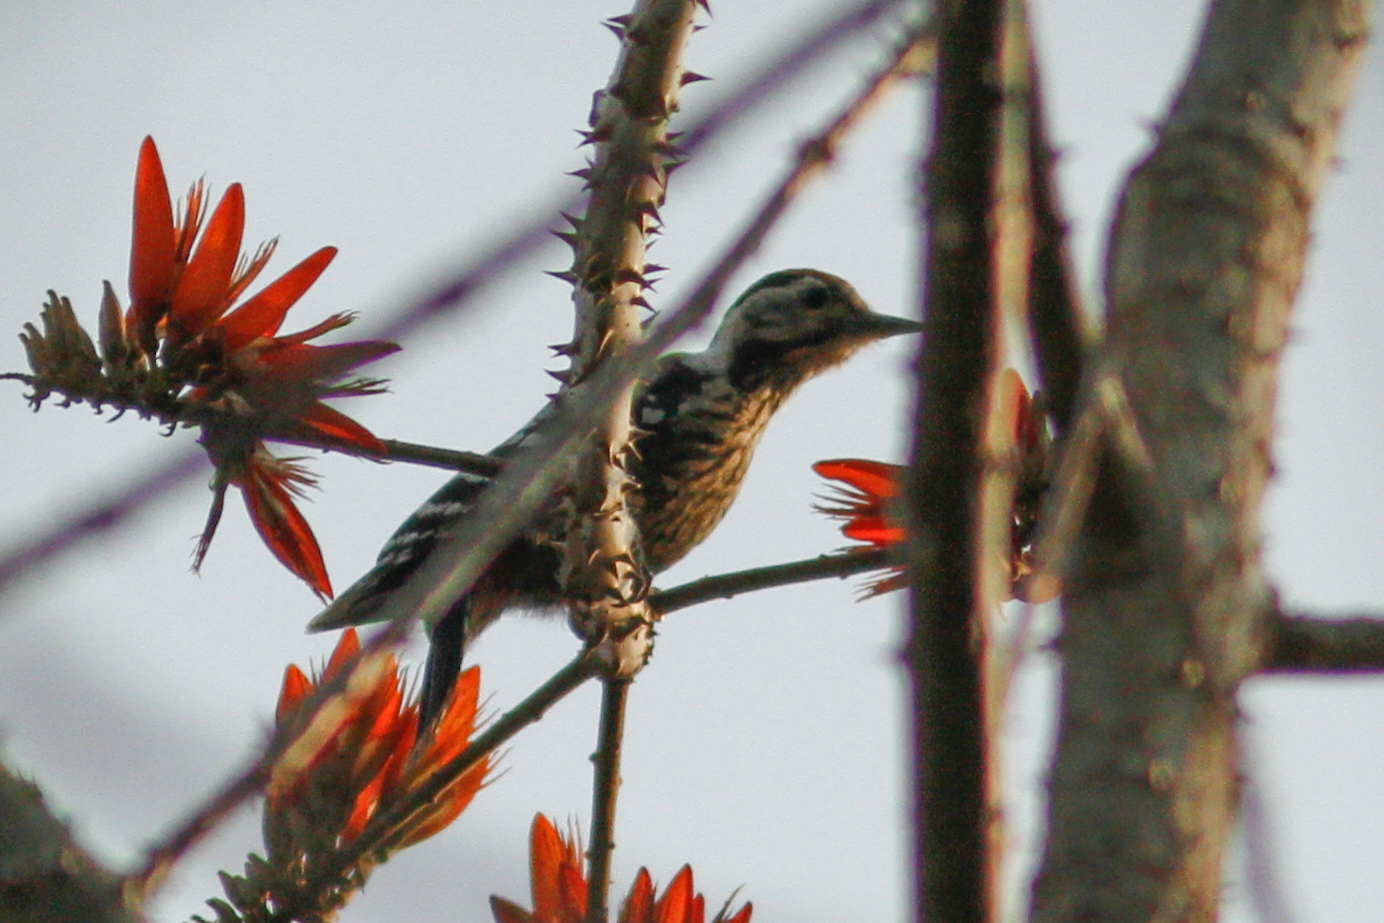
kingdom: Animalia
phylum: Chordata
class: Aves
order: Piciformes
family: Picidae
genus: Dendrocopos
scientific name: Dendrocopos atratus
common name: Stripe-breasted woodpecker
